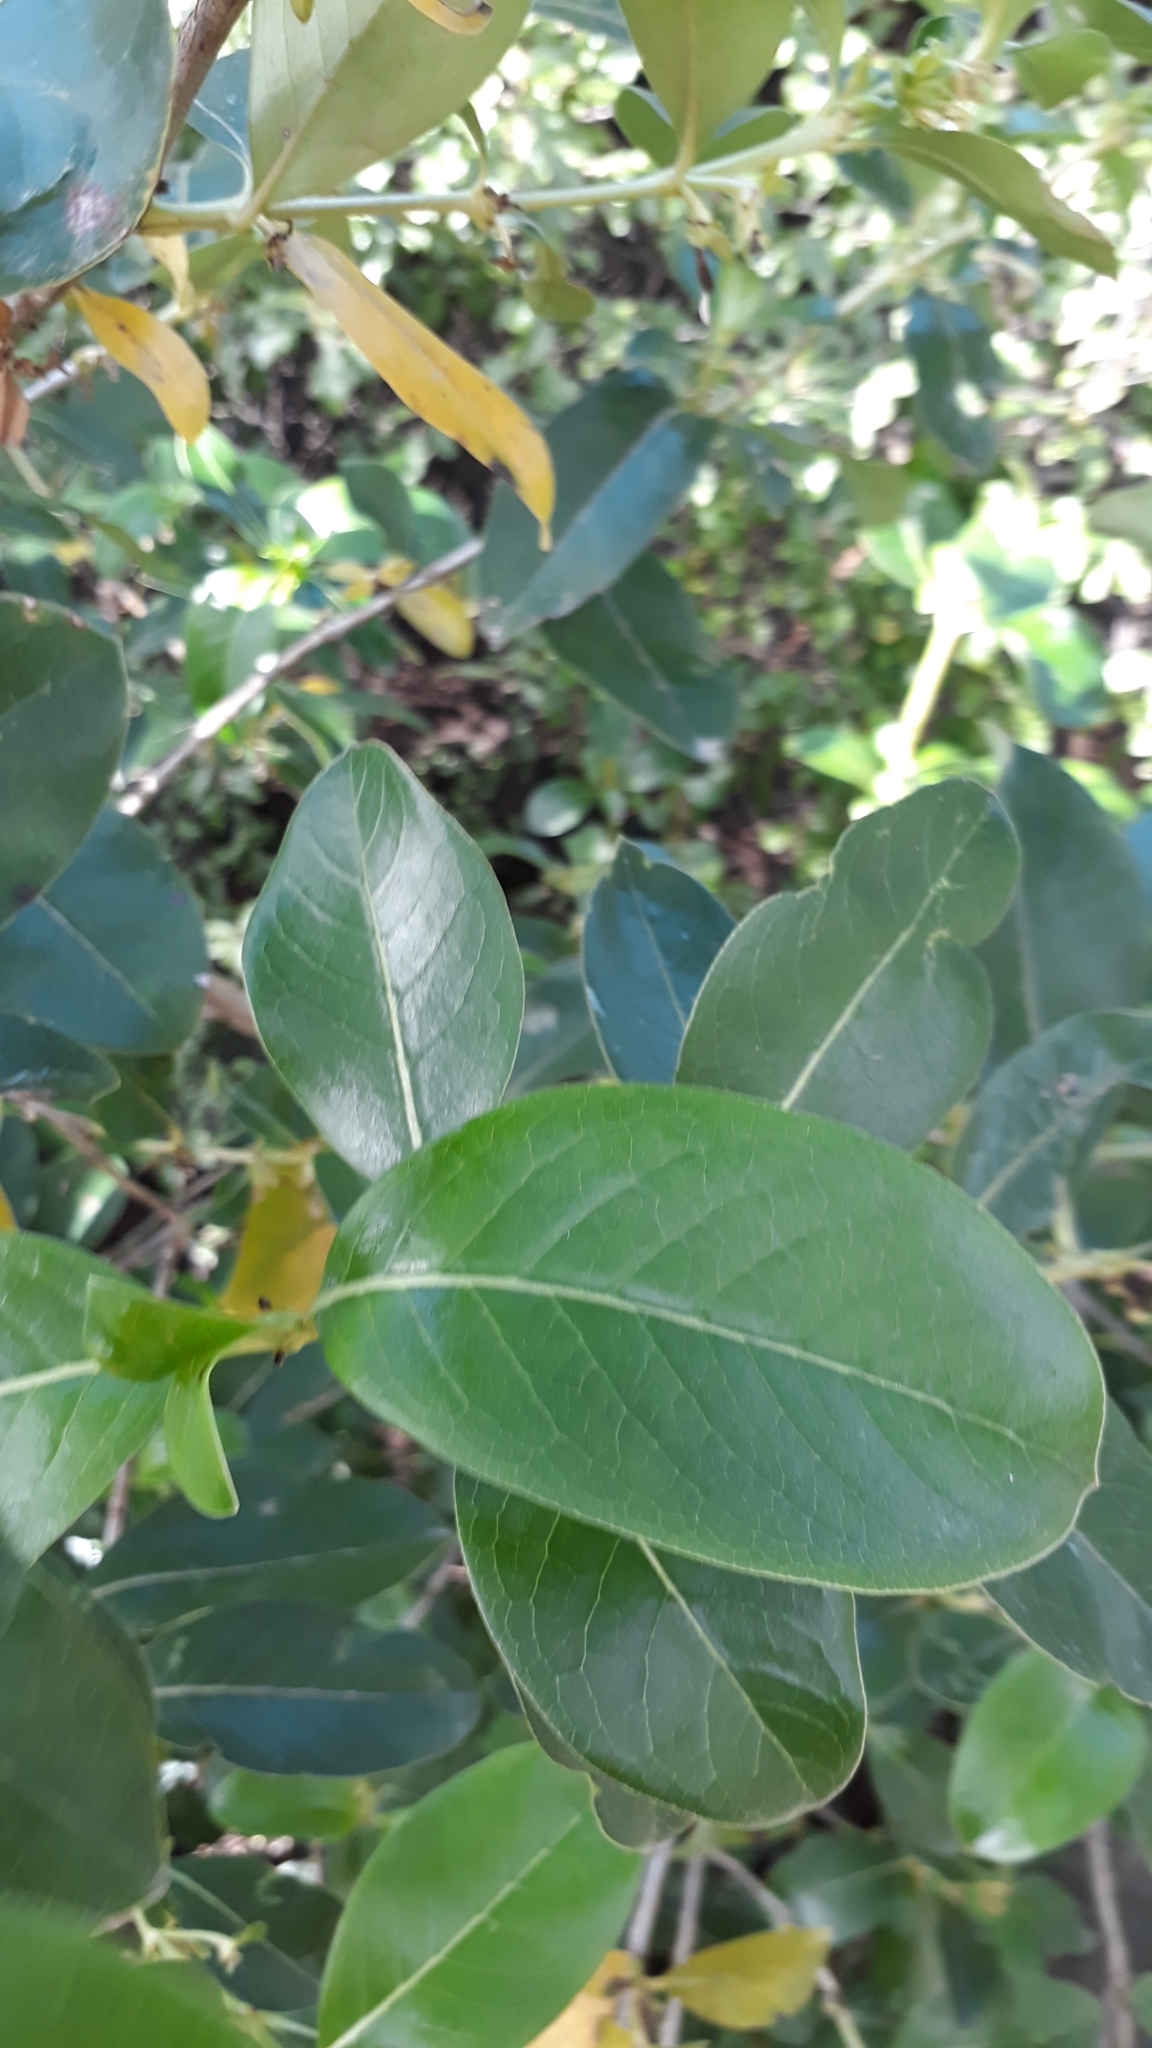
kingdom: Plantae
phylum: Tracheophyta
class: Magnoliopsida
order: Gentianales
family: Rubiaceae
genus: Coprosma
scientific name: Coprosma robusta
